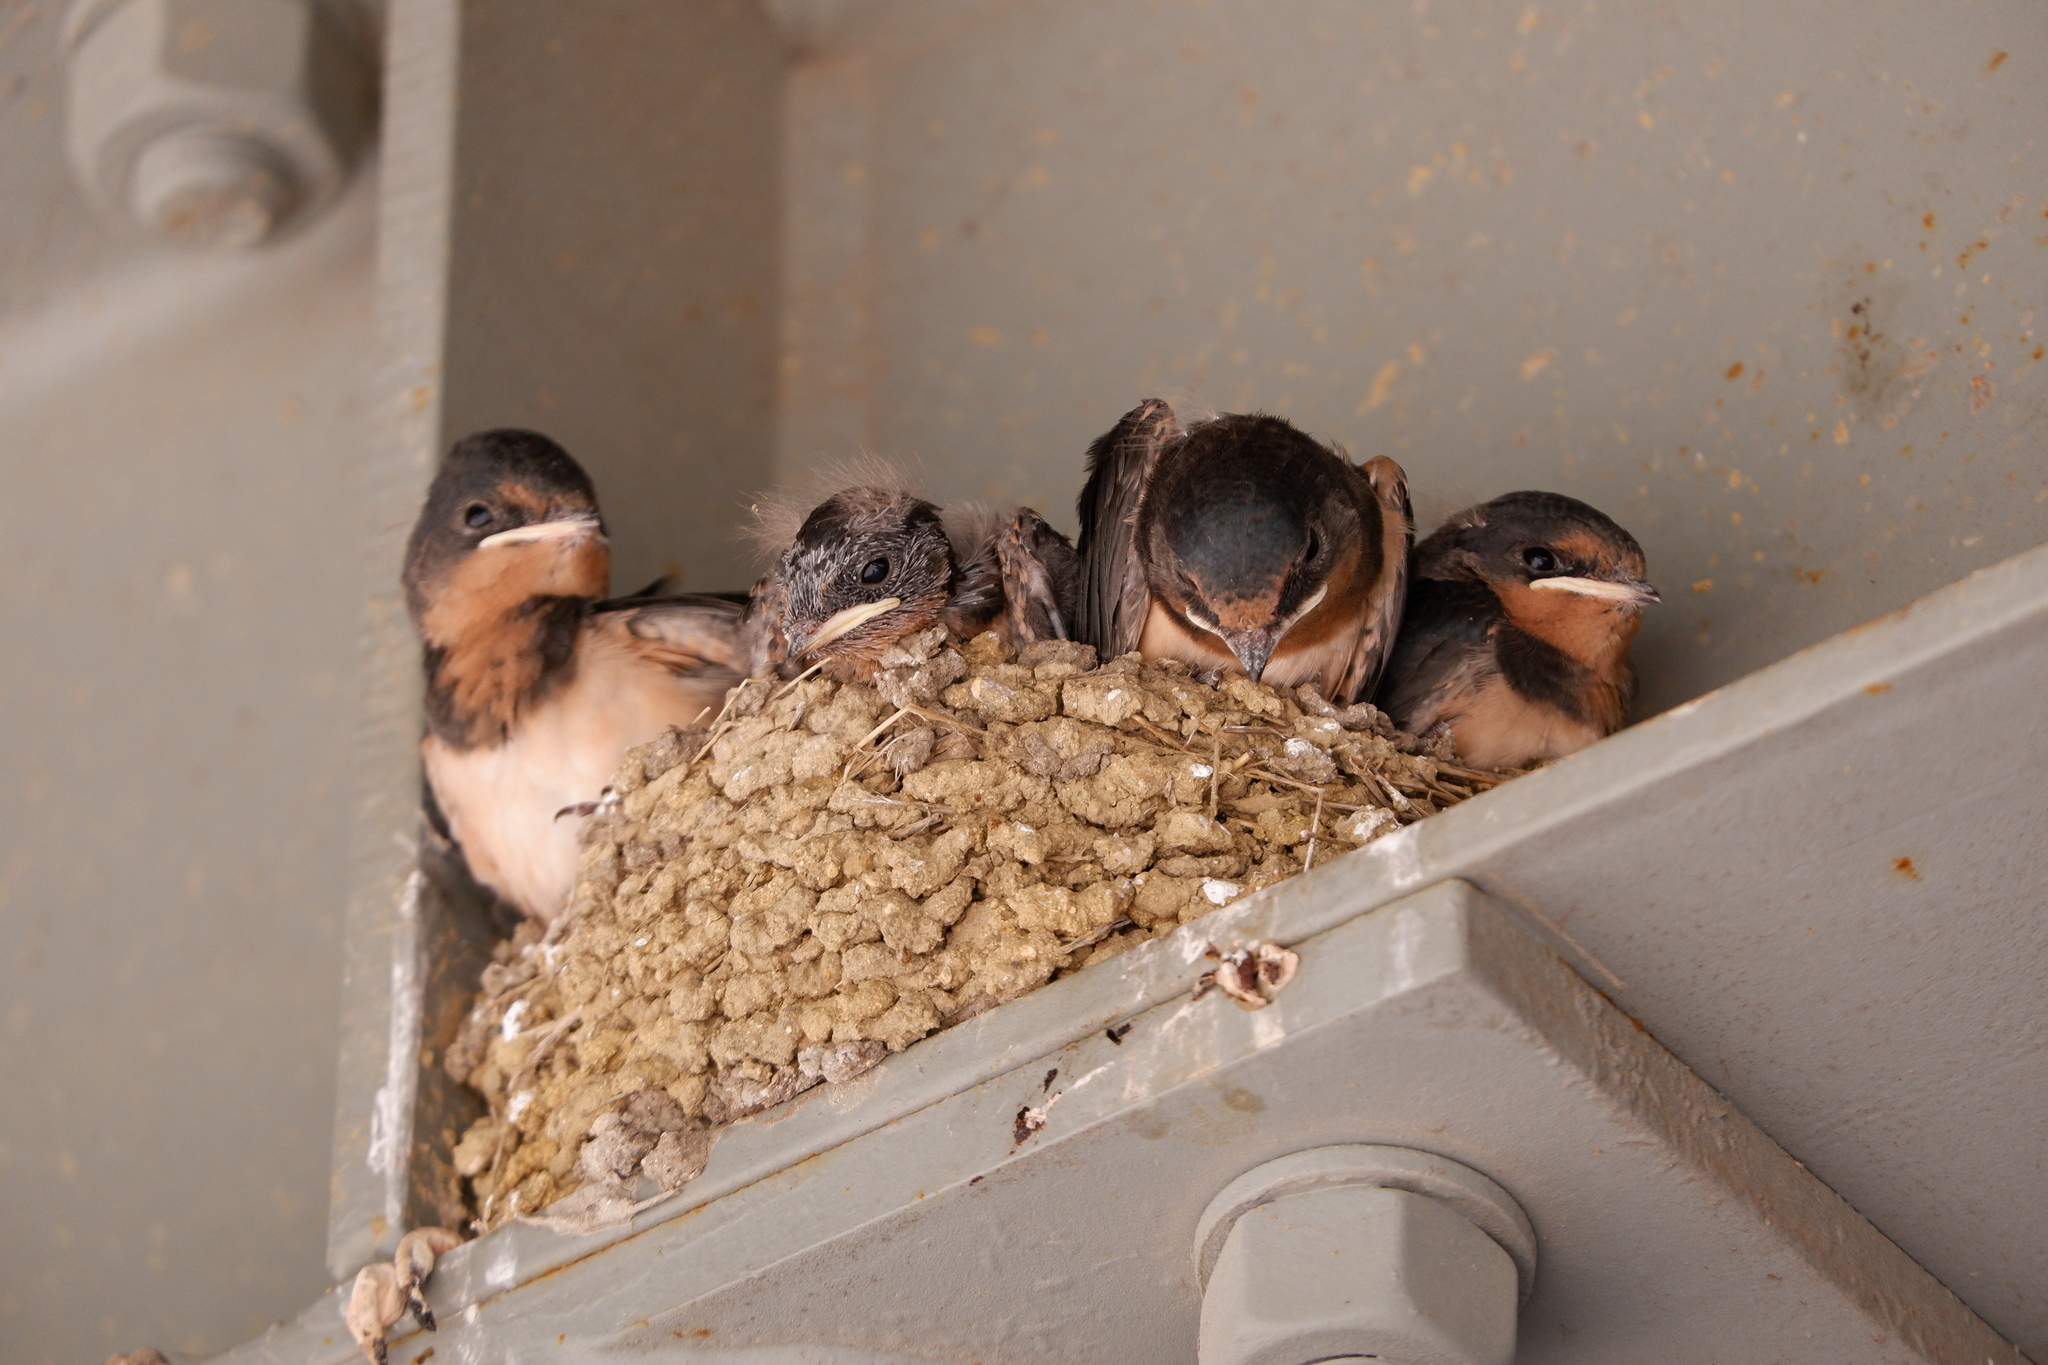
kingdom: Animalia
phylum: Chordata
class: Aves
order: Passeriformes
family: Hirundinidae
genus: Hirundo
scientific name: Hirundo rustica
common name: Barn swallow
